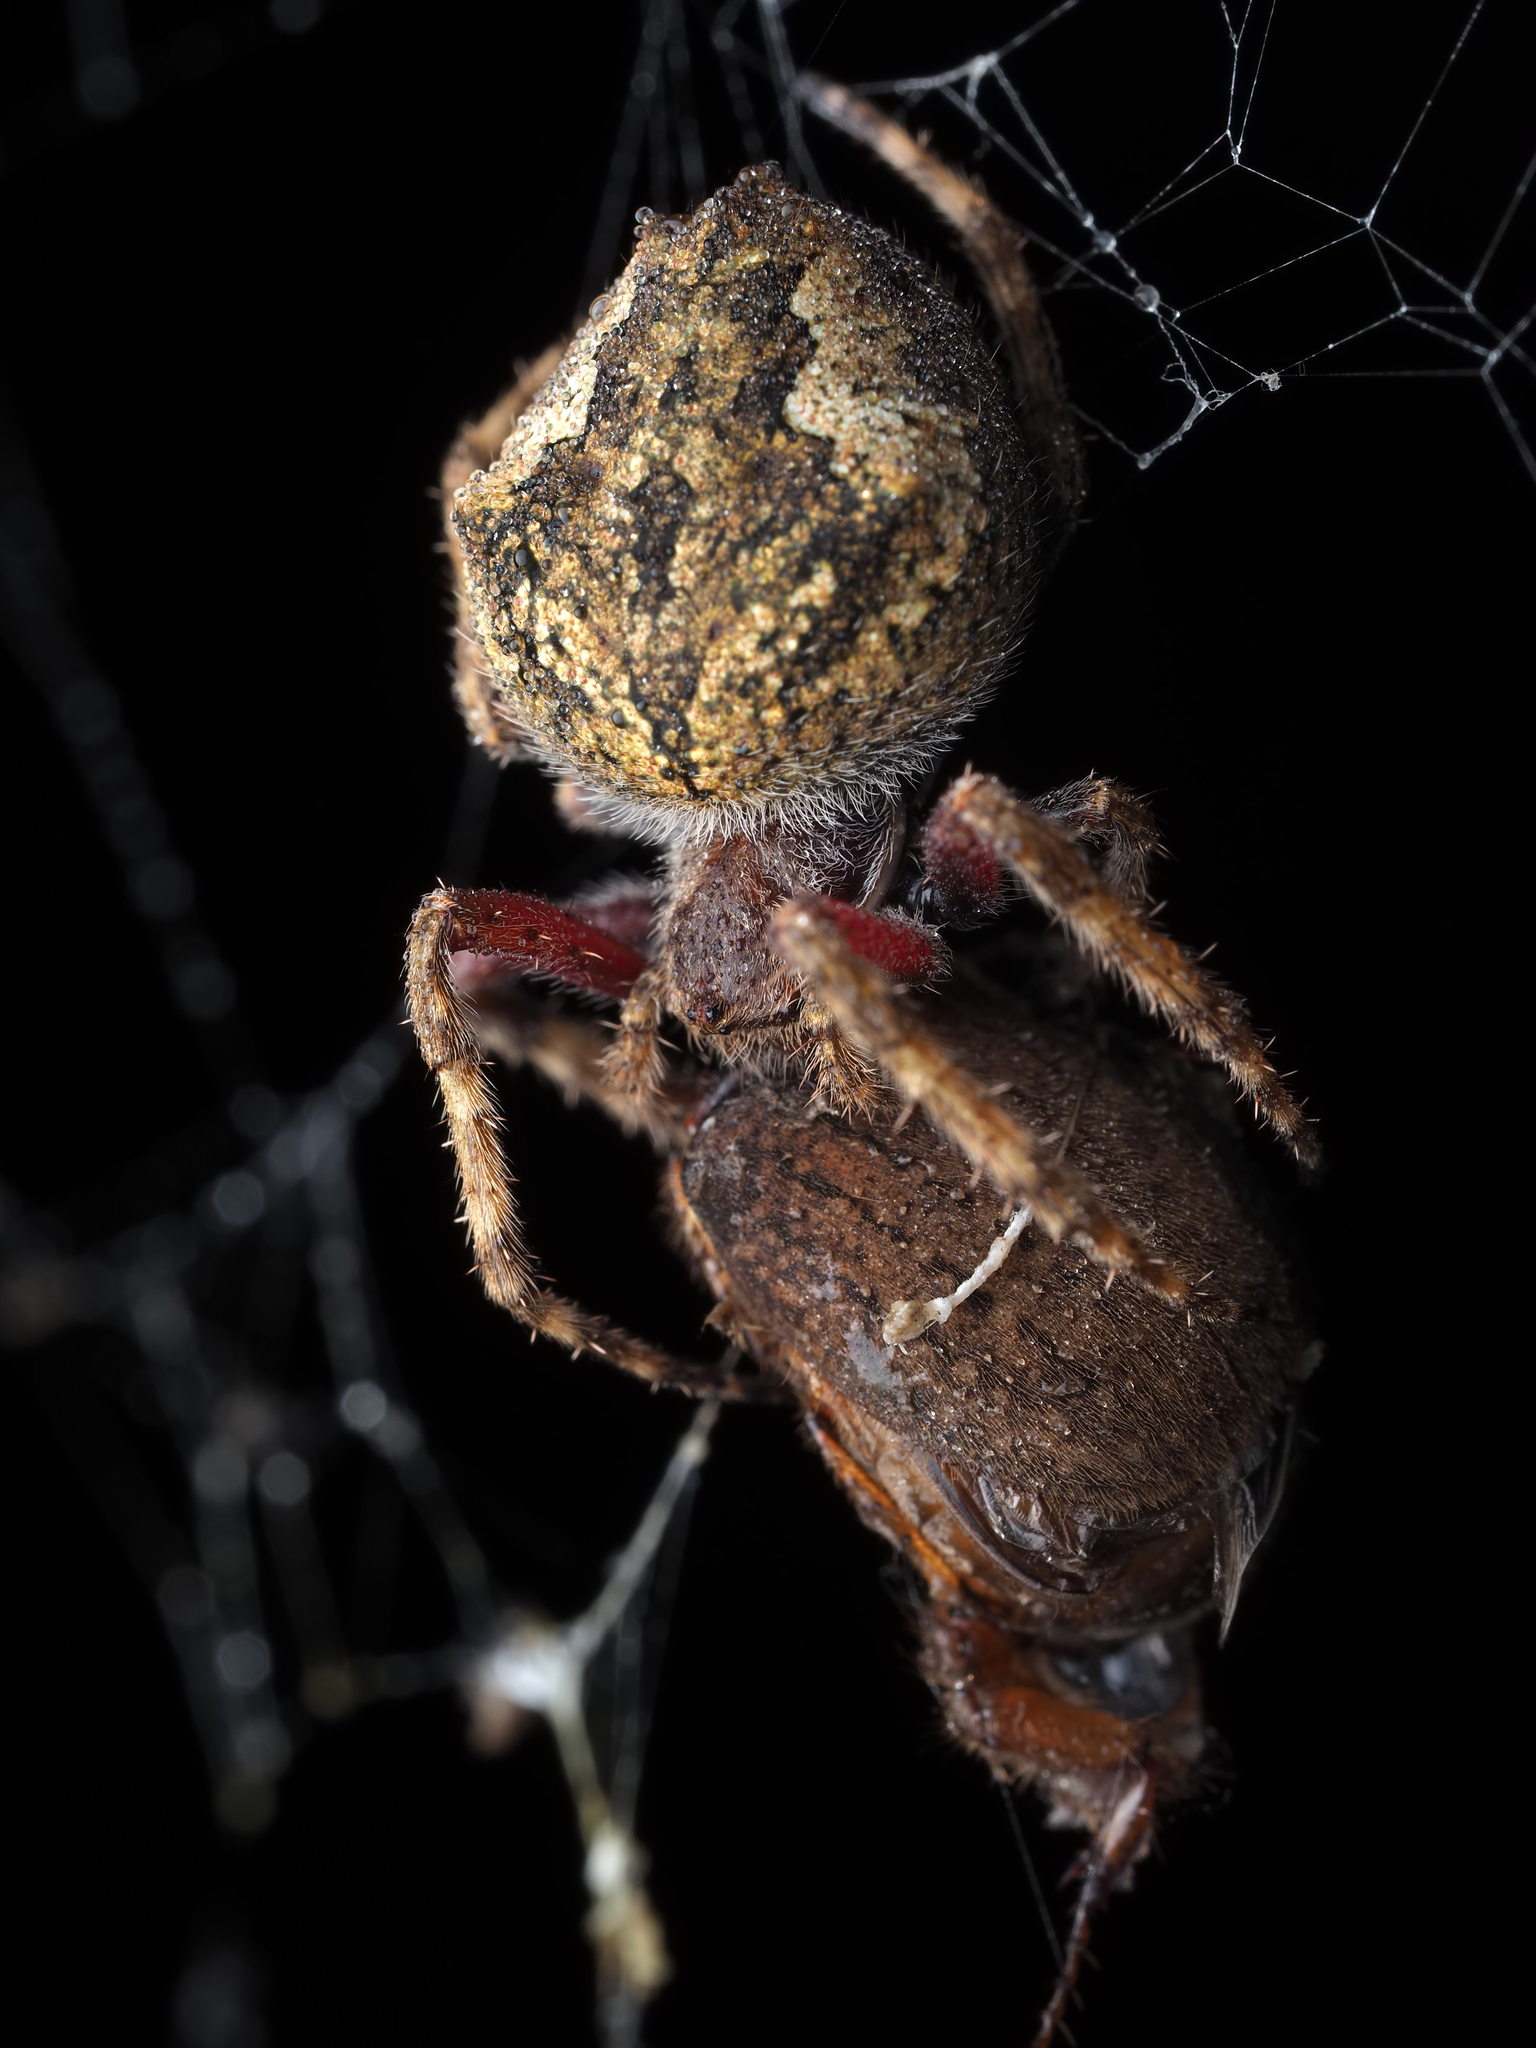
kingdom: Animalia
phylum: Arthropoda
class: Arachnida
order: Araneae
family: Araneidae
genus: Eriophora
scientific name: Eriophora pustulosa
